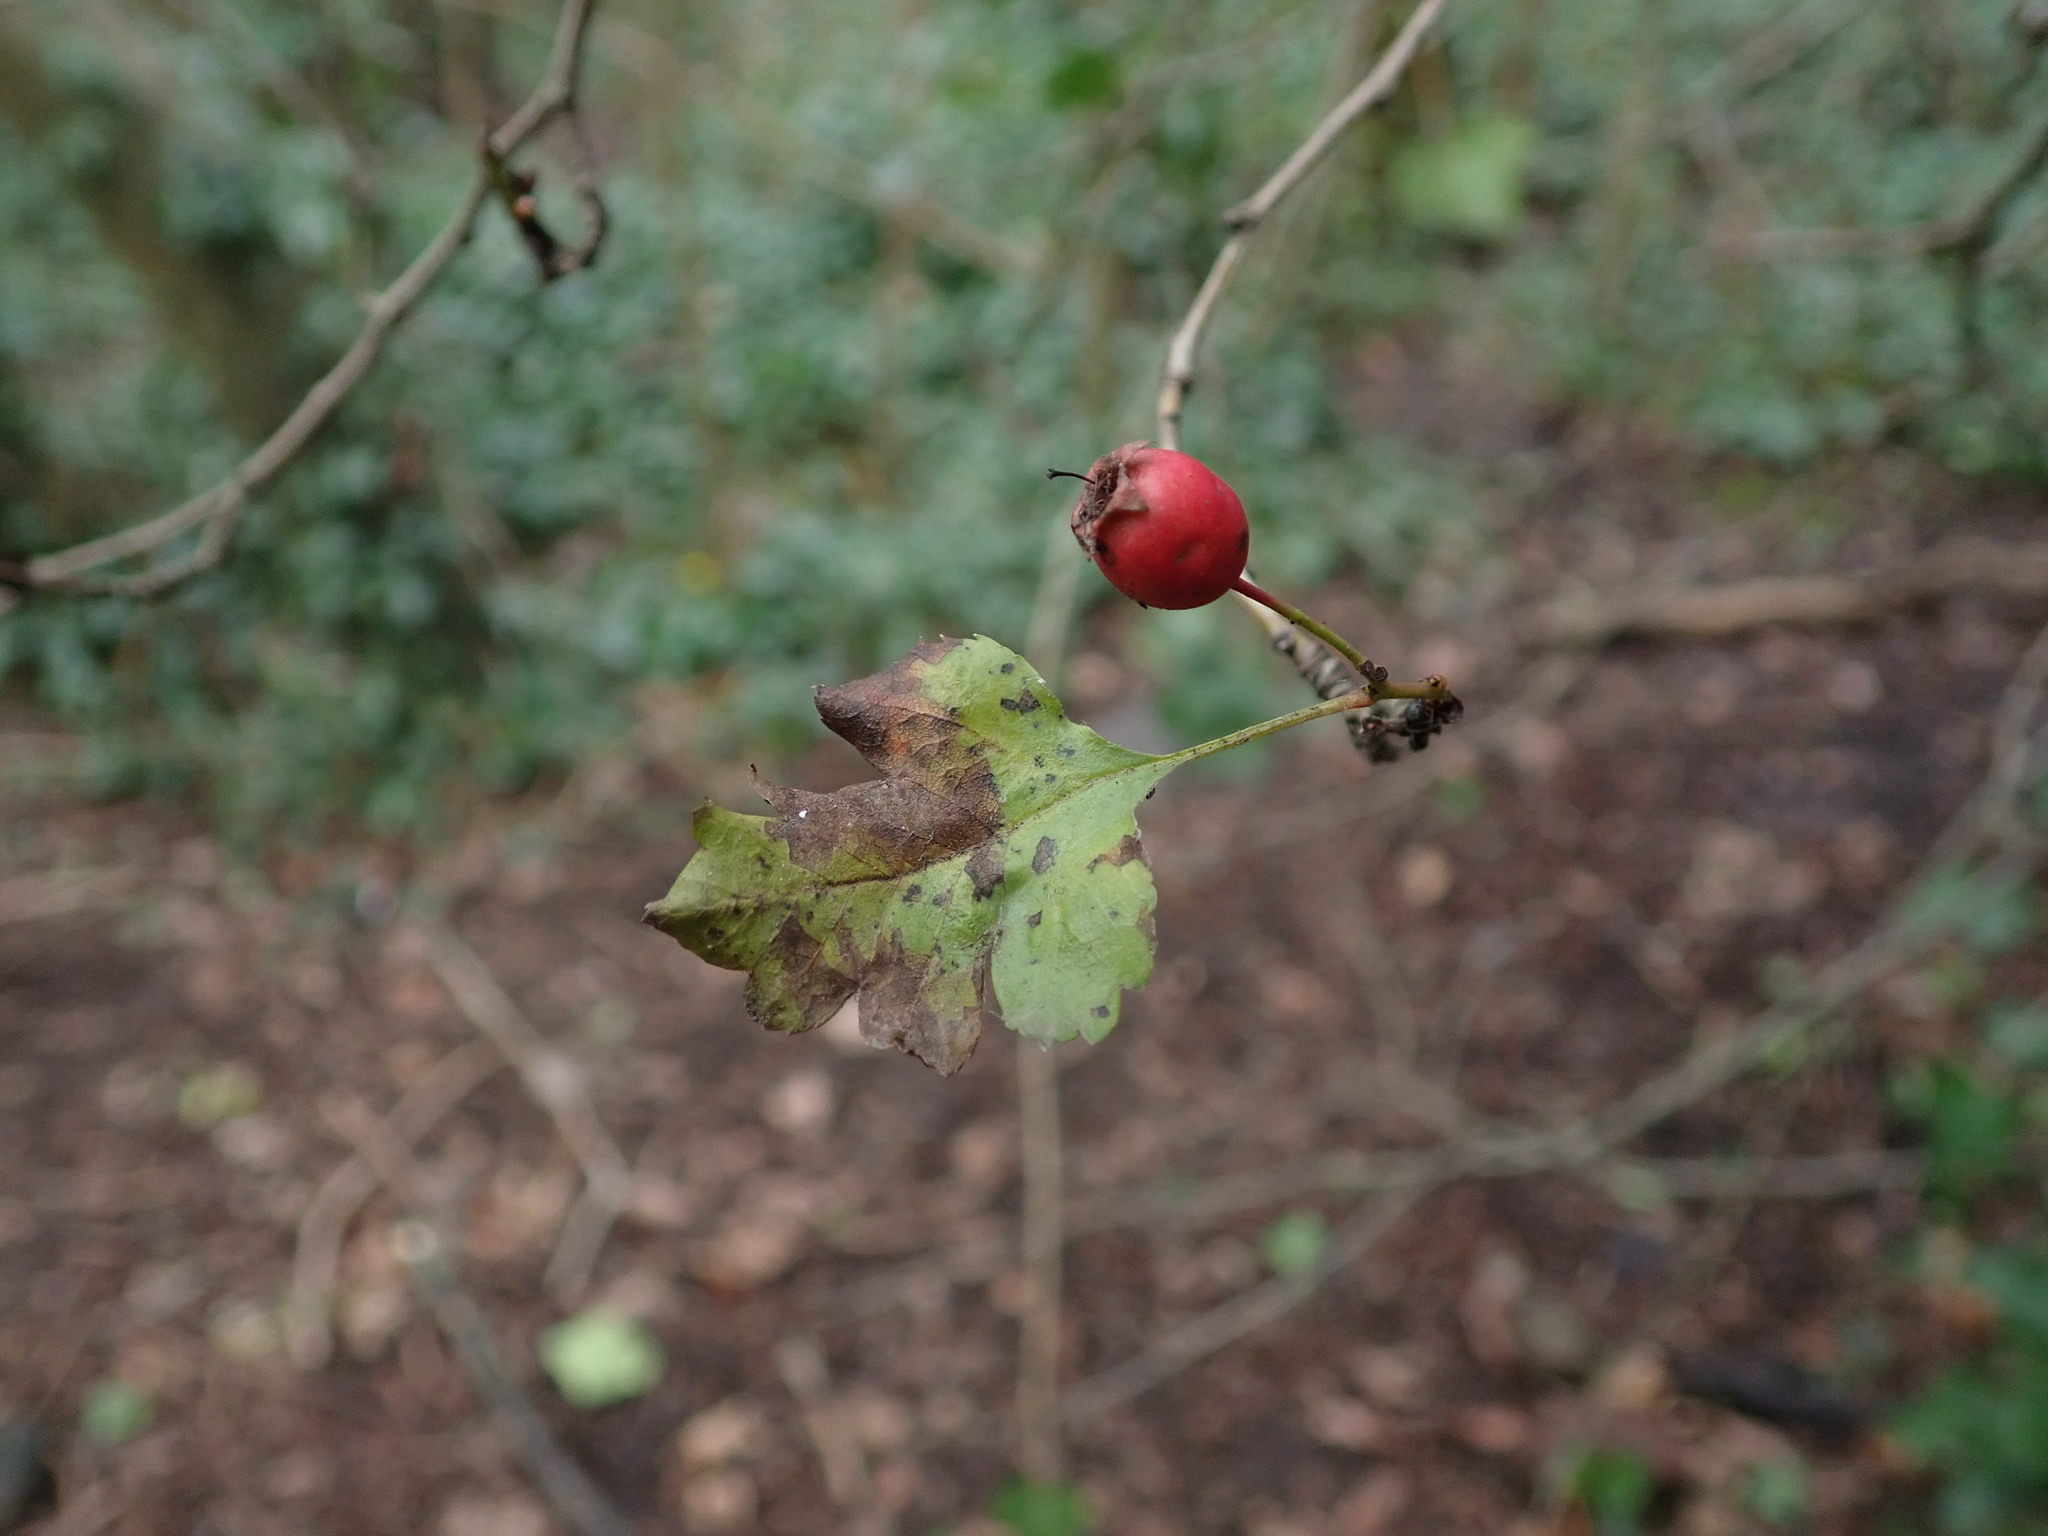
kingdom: Plantae
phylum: Tracheophyta
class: Magnoliopsida
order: Rosales
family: Rosaceae
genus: Crataegus
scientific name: Crataegus monogyna
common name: Hawthorn
